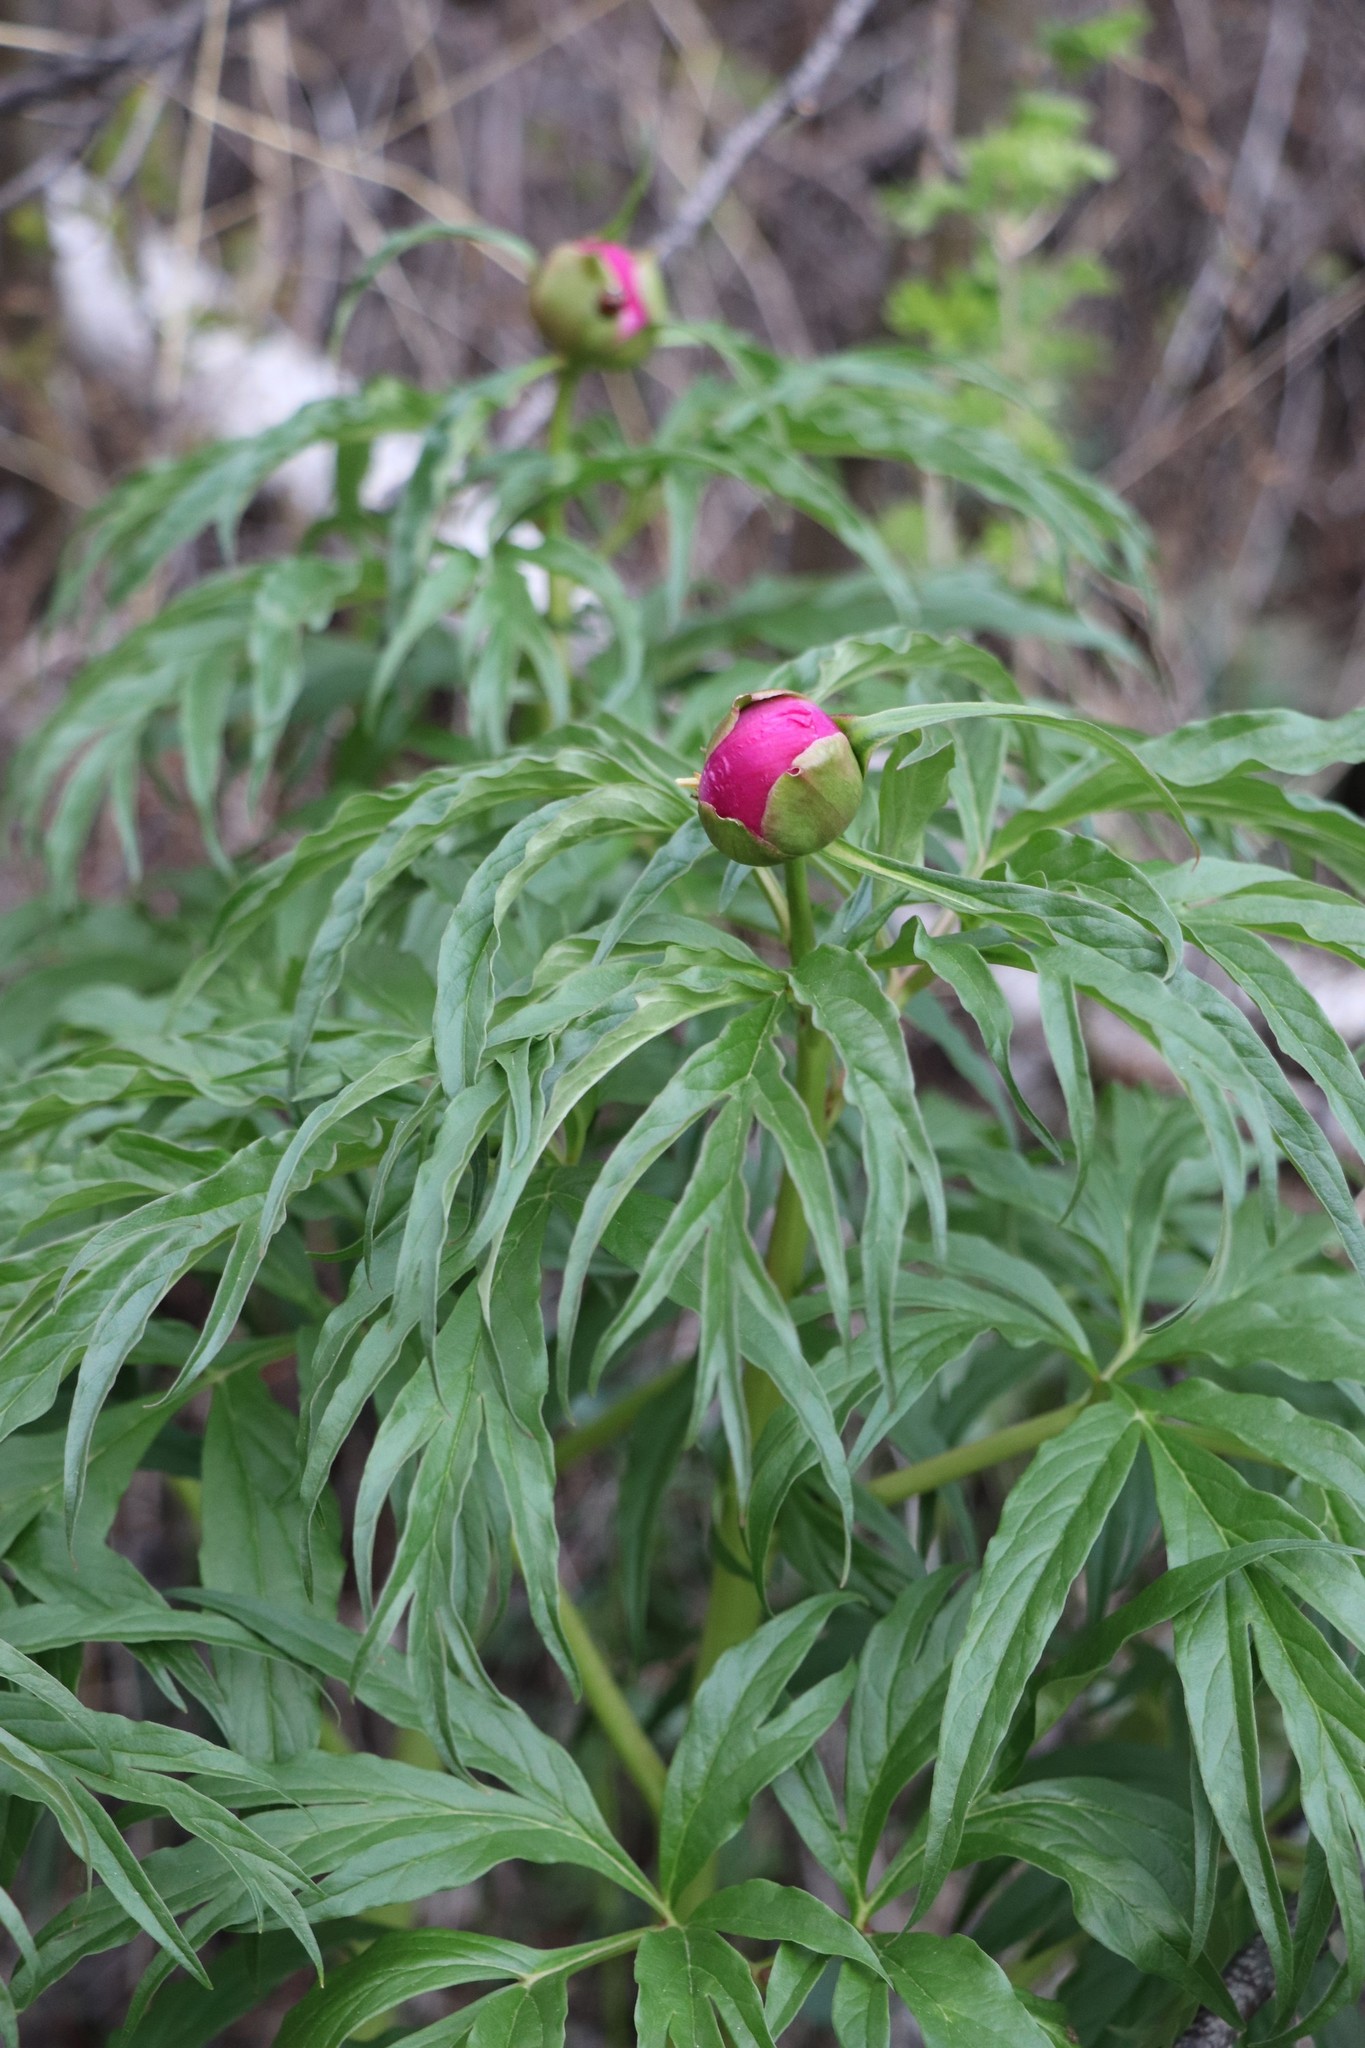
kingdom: Plantae
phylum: Tracheophyta
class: Magnoliopsida
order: Saxifragales
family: Paeoniaceae
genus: Paeonia
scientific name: Paeonia anomala
